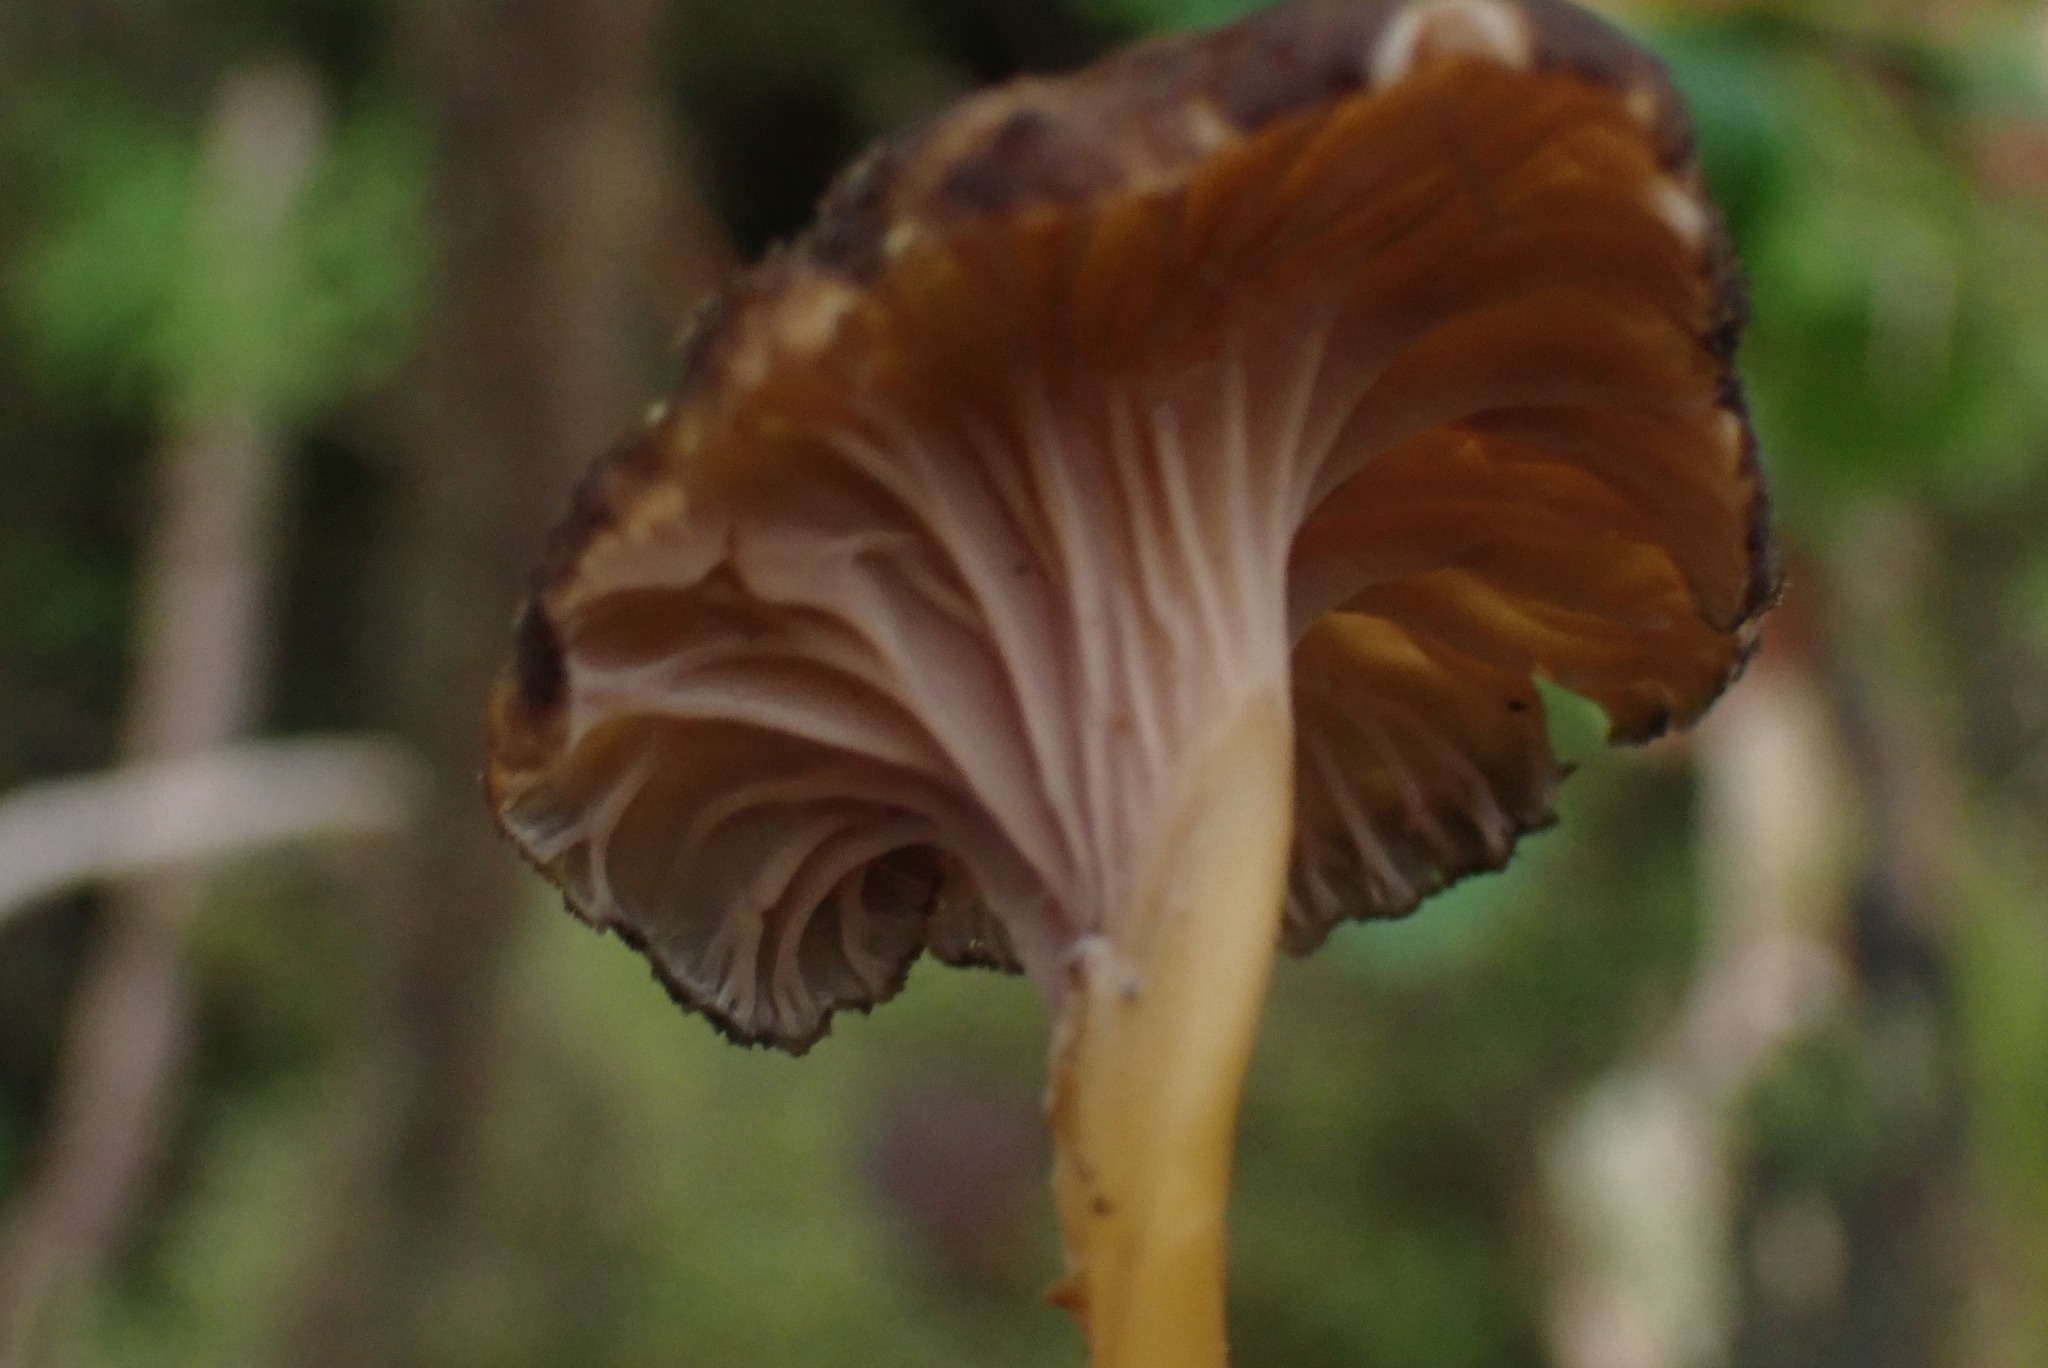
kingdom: Fungi
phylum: Basidiomycota
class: Agaricomycetes
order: Cantharellales
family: Hydnaceae
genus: Craterellus
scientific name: Craterellus tubaeformis
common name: Yellowfoot
